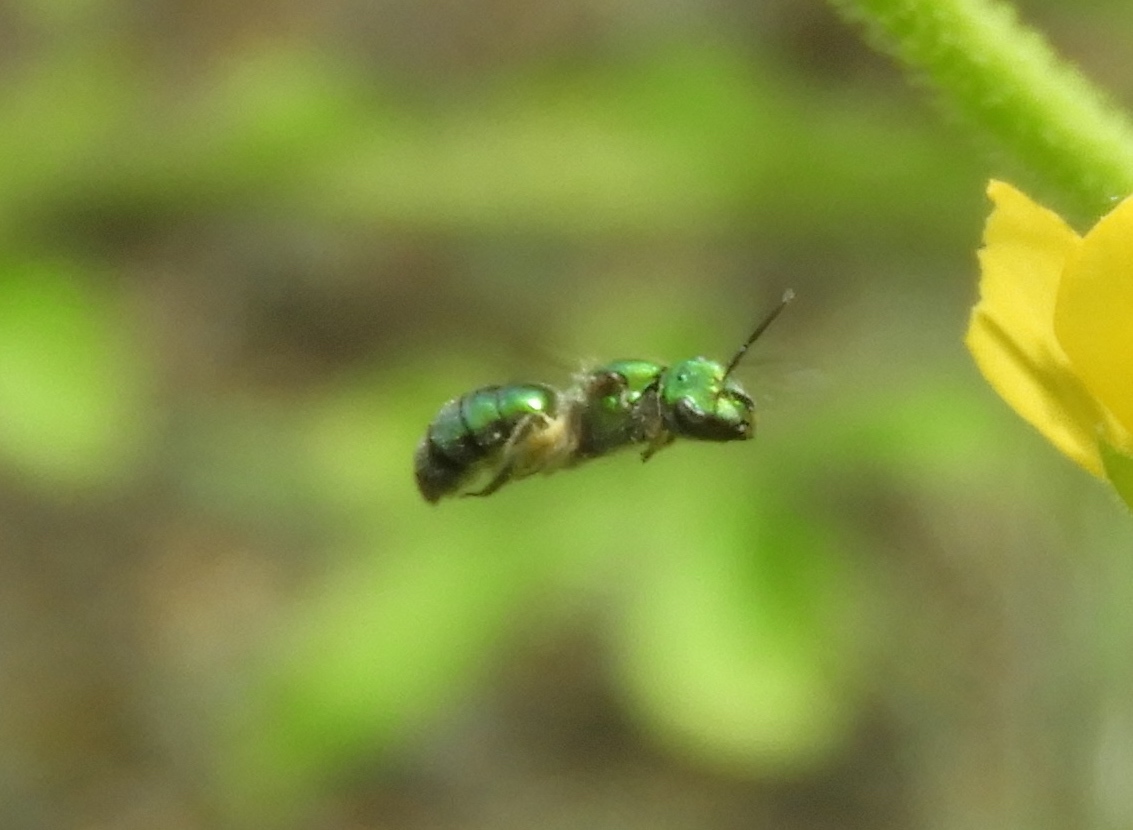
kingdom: Animalia
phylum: Arthropoda
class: Insecta
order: Hymenoptera
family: Halictidae
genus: Augochlora
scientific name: Augochlora
